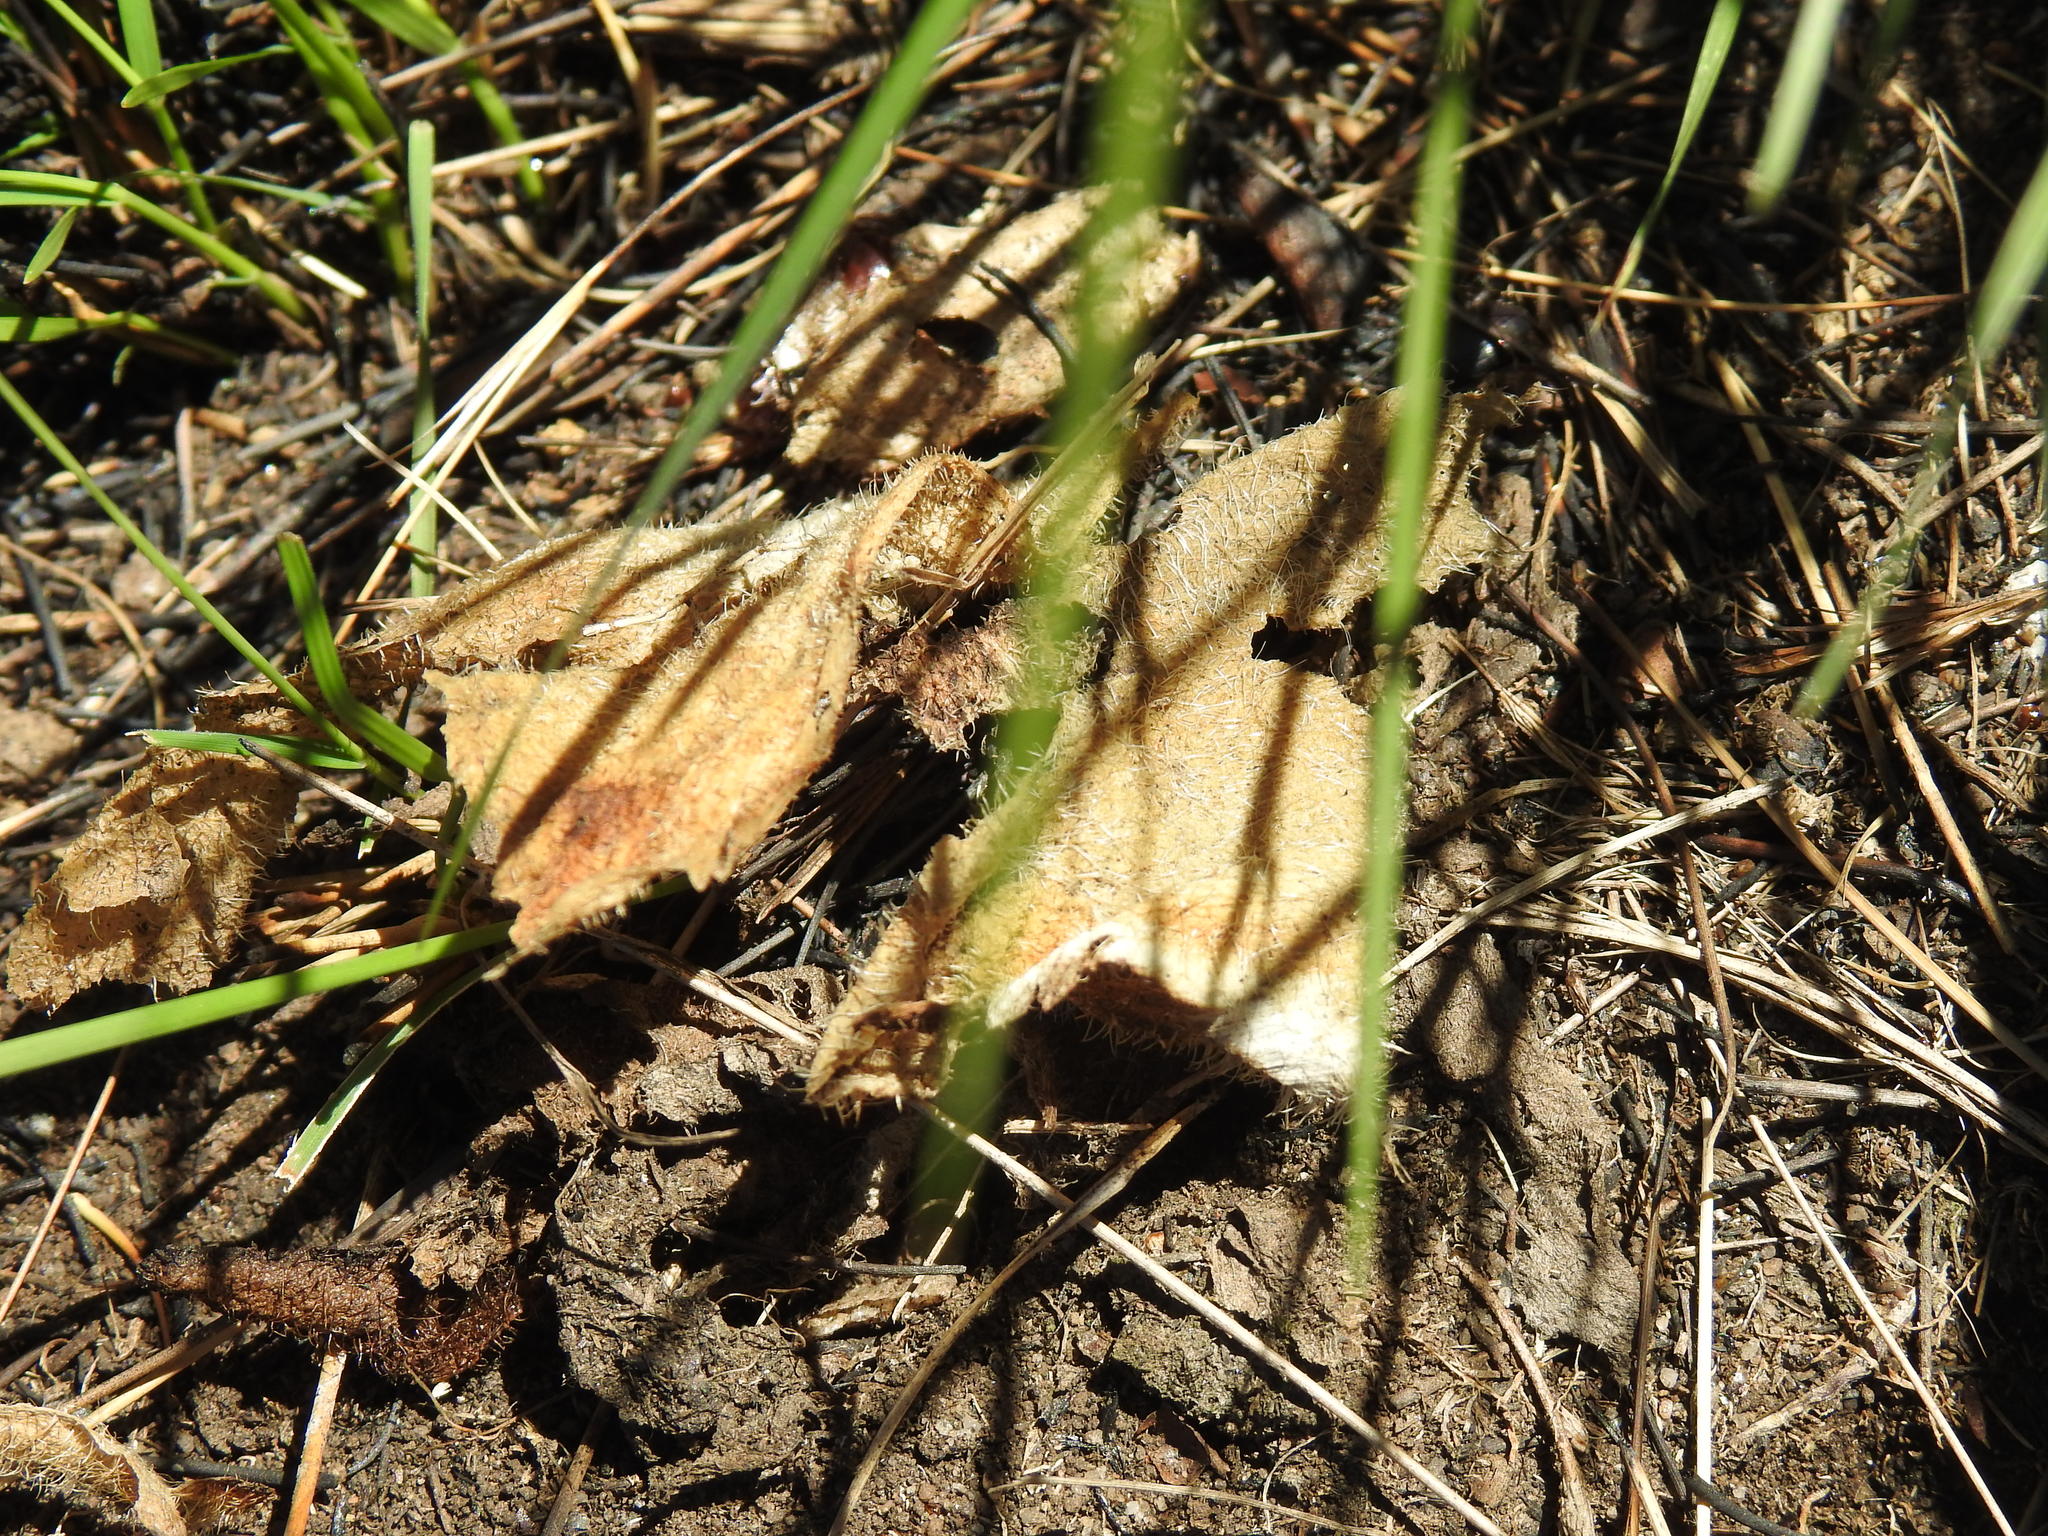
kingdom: Plantae
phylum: Tracheophyta
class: Liliopsida
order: Asparagales
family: Amaryllidaceae
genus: Haemanthus
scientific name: Haemanthus humilis
